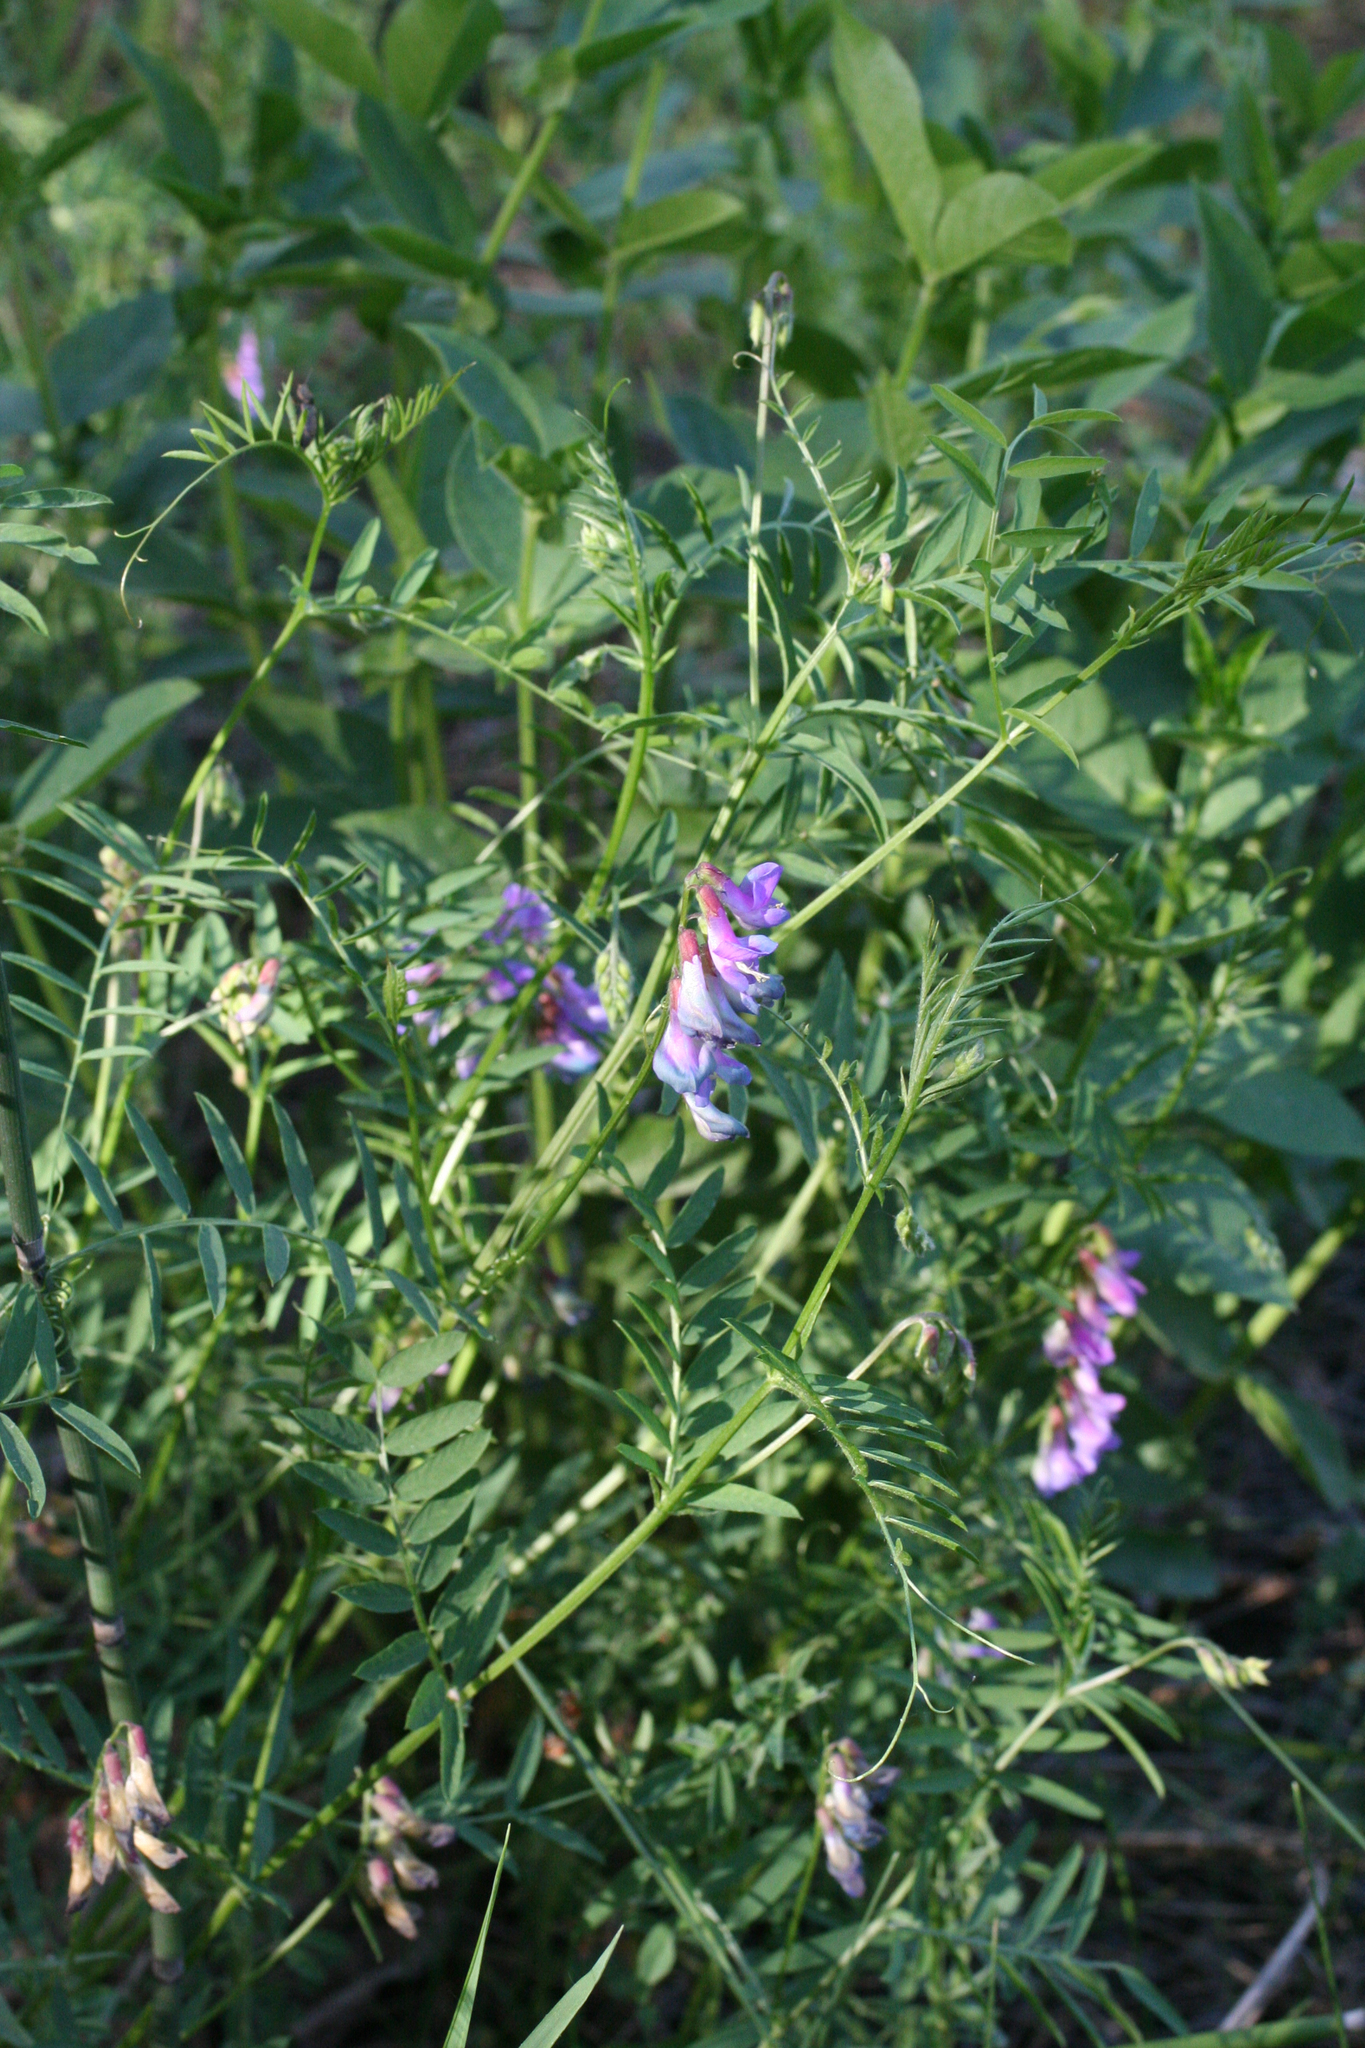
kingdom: Plantae
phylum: Tracheophyta
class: Magnoliopsida
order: Fabales
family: Fabaceae
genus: Vicia
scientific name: Vicia multicaulis
